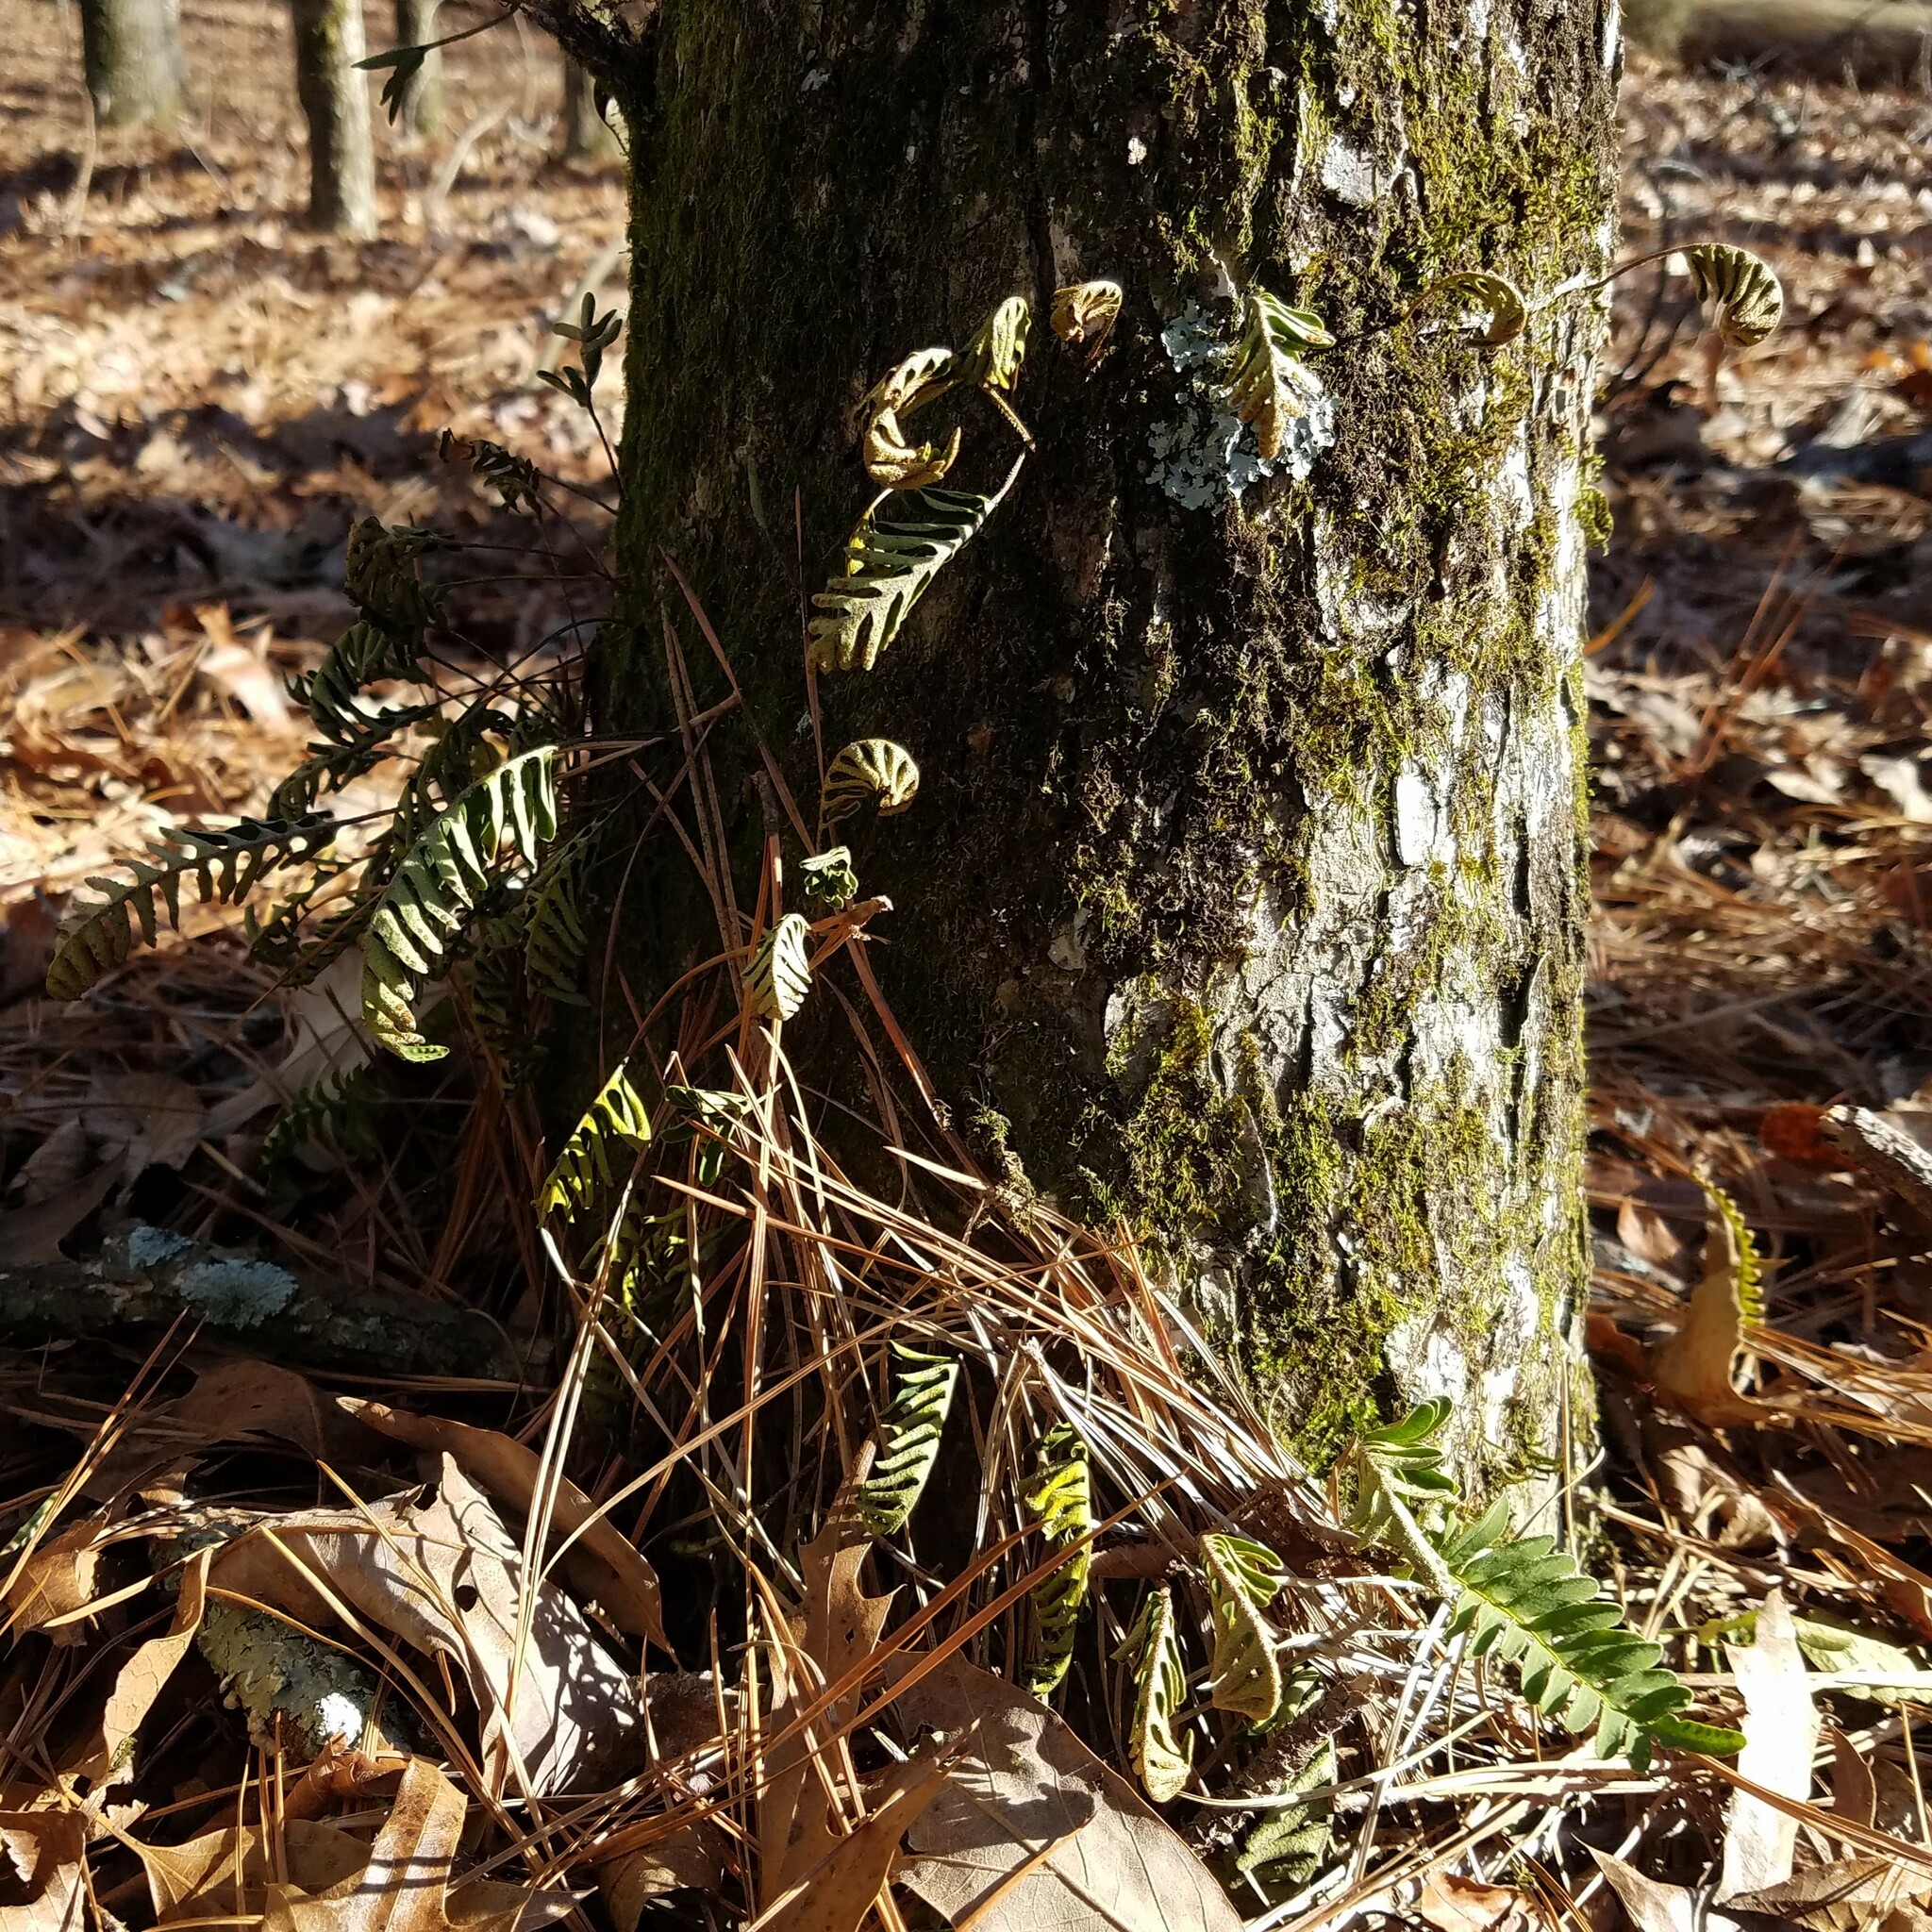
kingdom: Plantae
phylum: Tracheophyta
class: Polypodiopsida
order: Polypodiales
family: Polypodiaceae
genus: Pleopeltis
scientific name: Pleopeltis michauxiana
